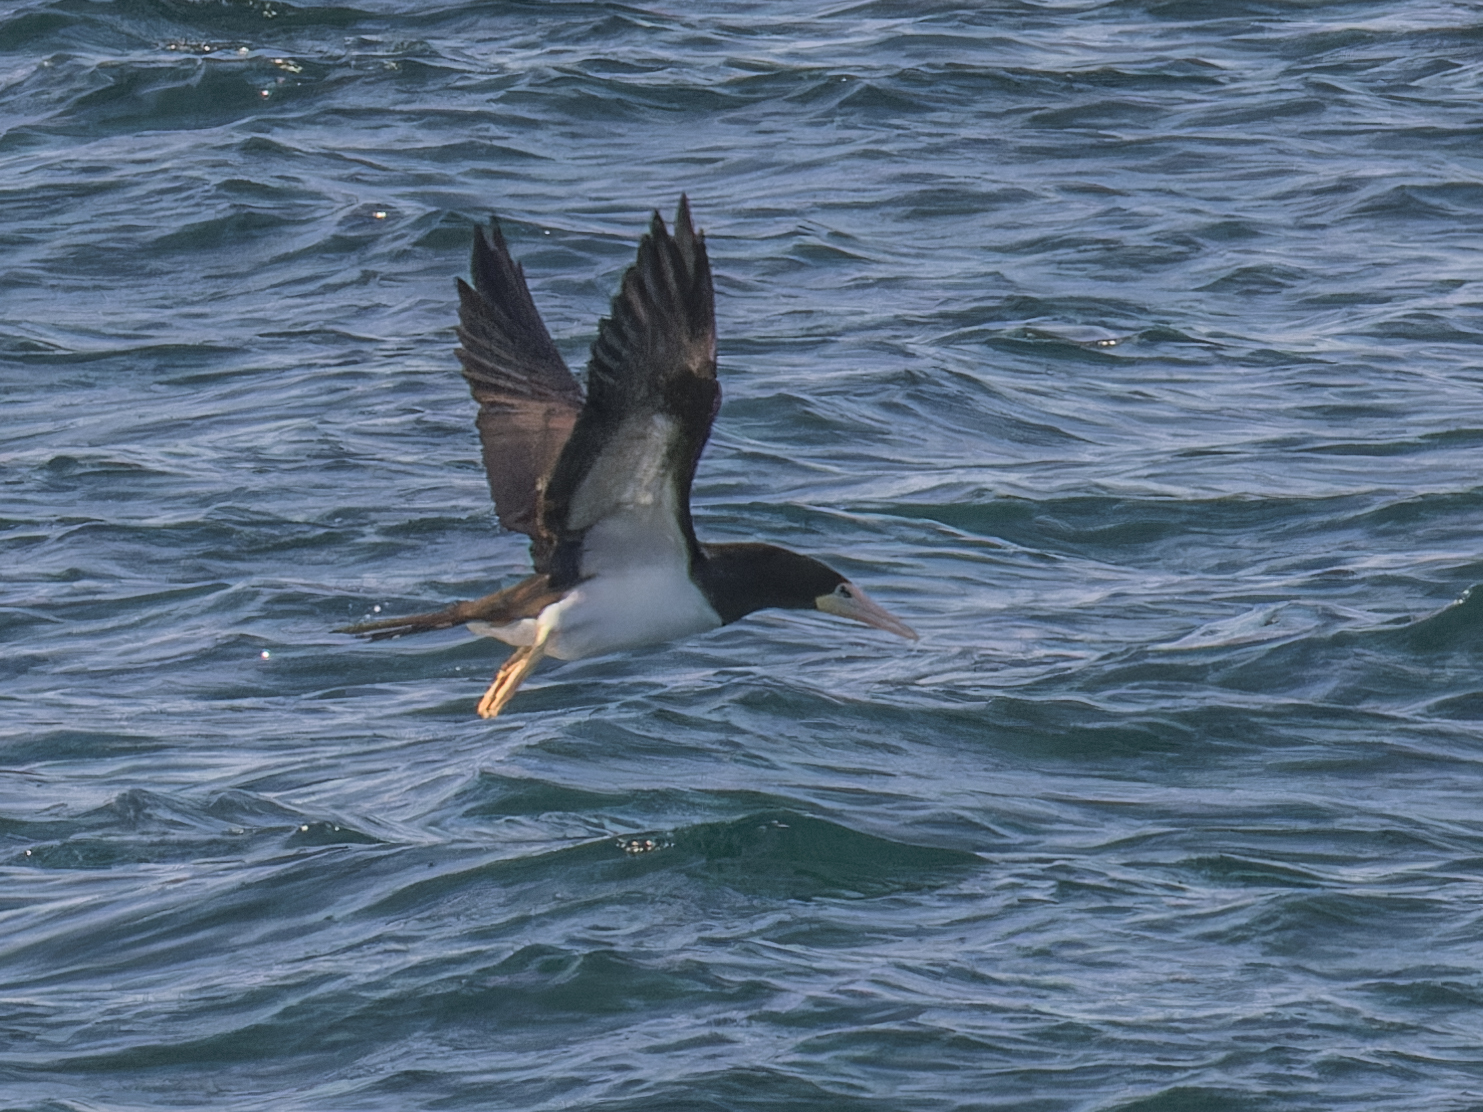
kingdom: Animalia
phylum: Chordata
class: Aves
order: Suliformes
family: Sulidae
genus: Sula
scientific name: Sula leucogaster
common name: Brown booby
